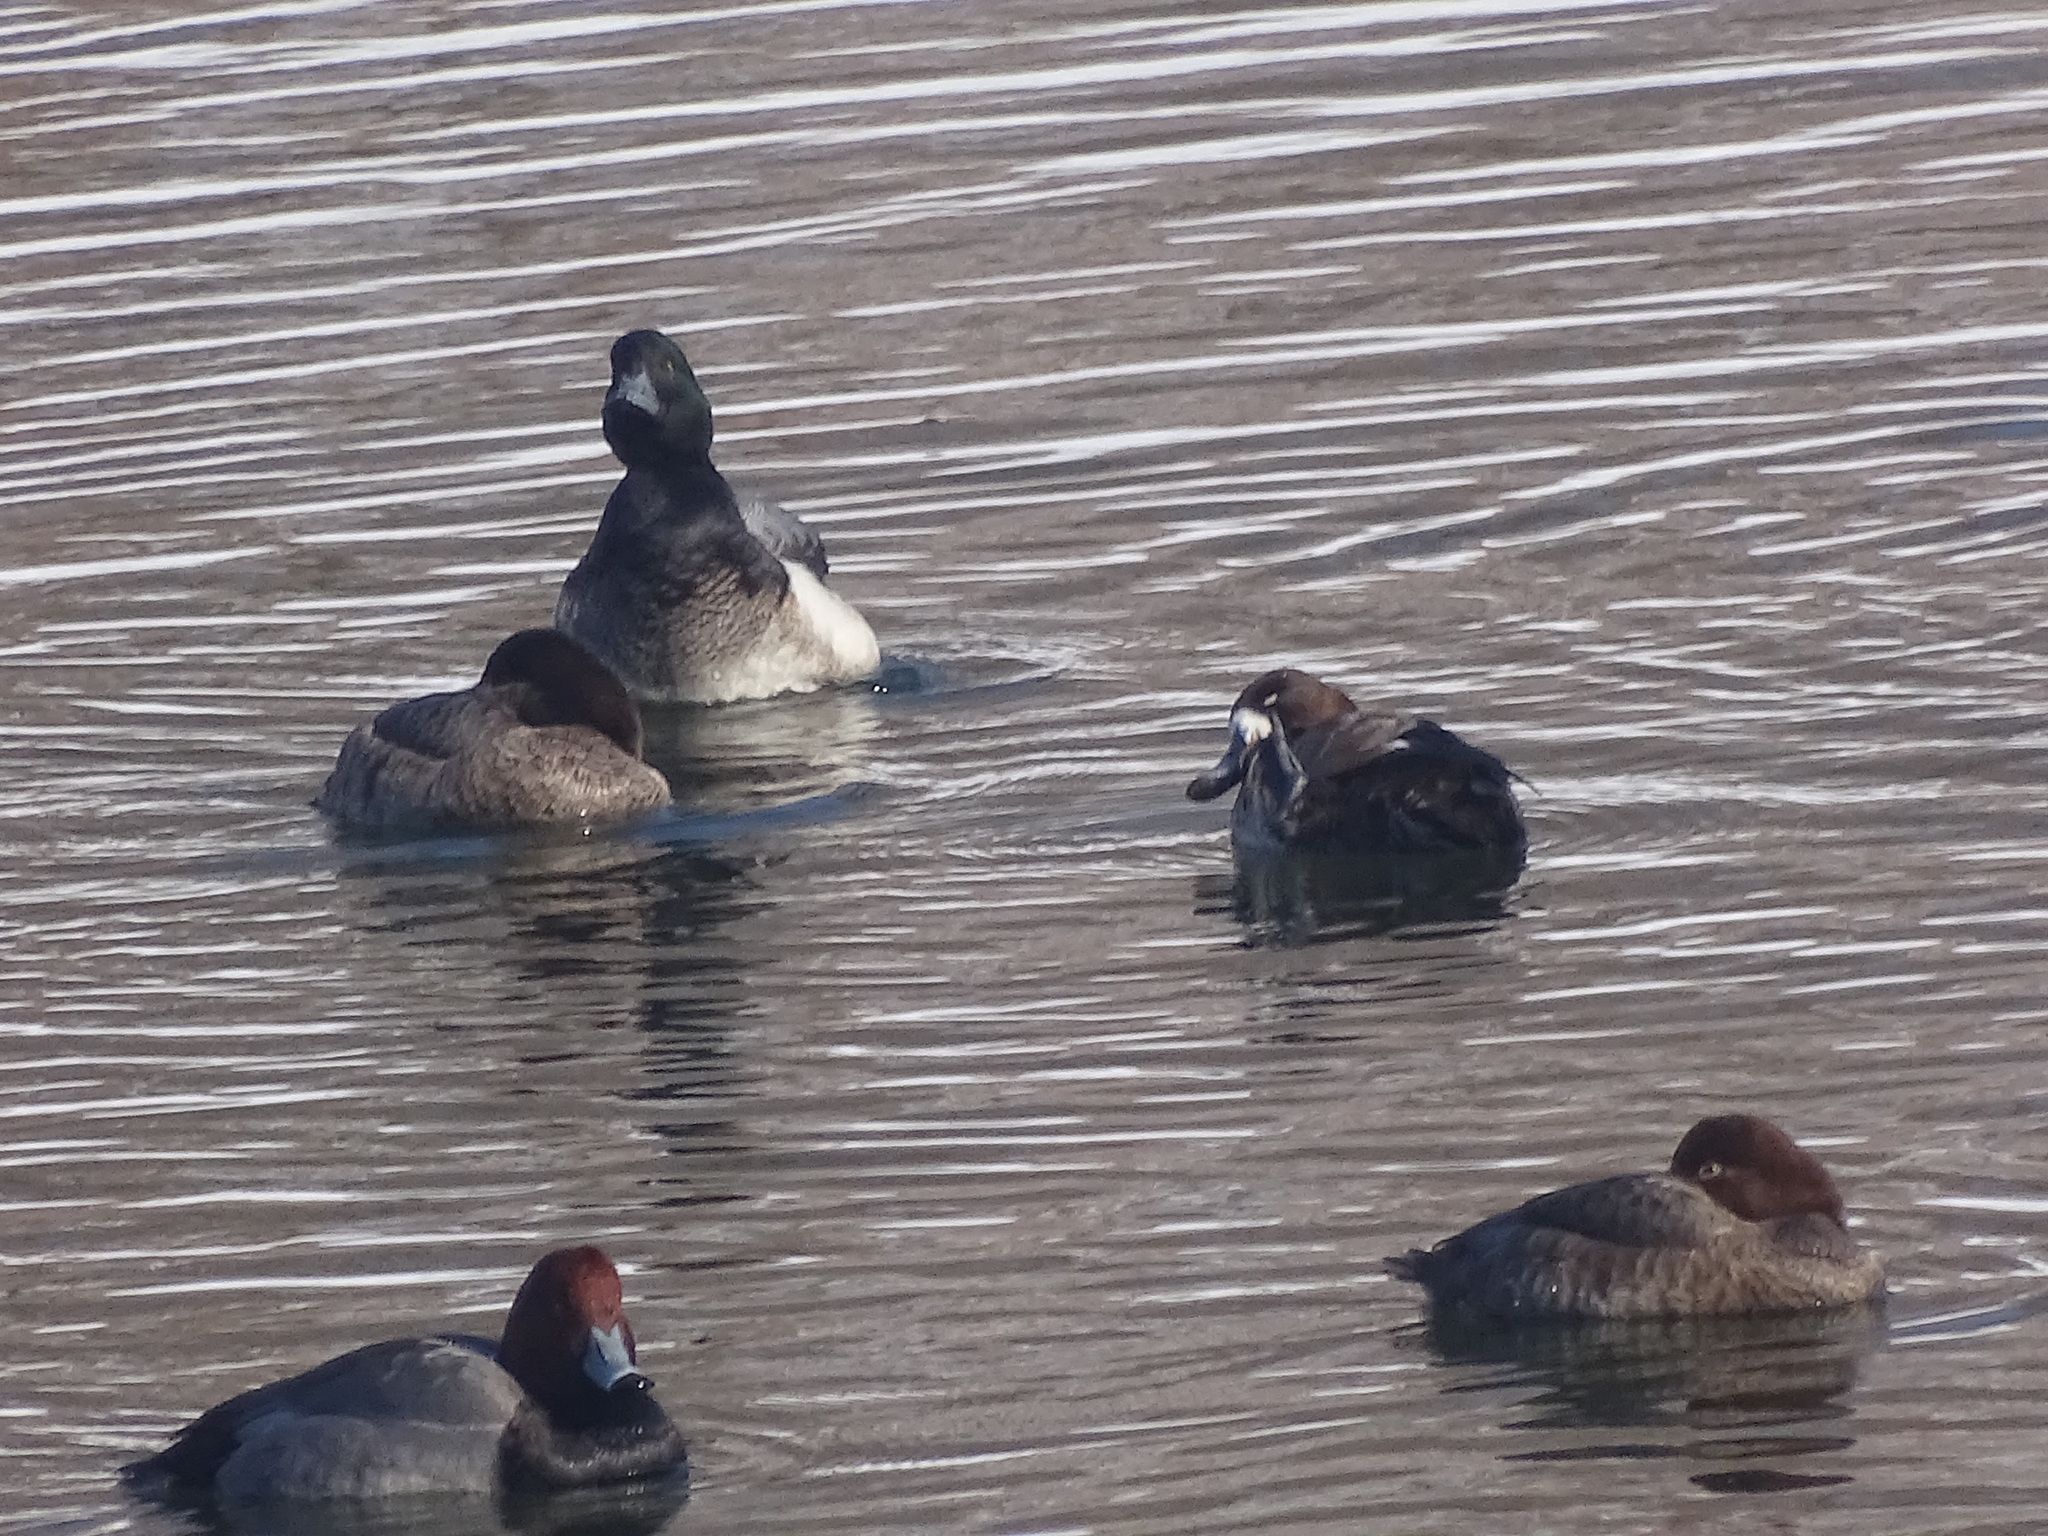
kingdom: Animalia
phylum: Chordata
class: Aves
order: Anseriformes
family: Anatidae
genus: Aythya
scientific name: Aythya marila
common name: Greater scaup
